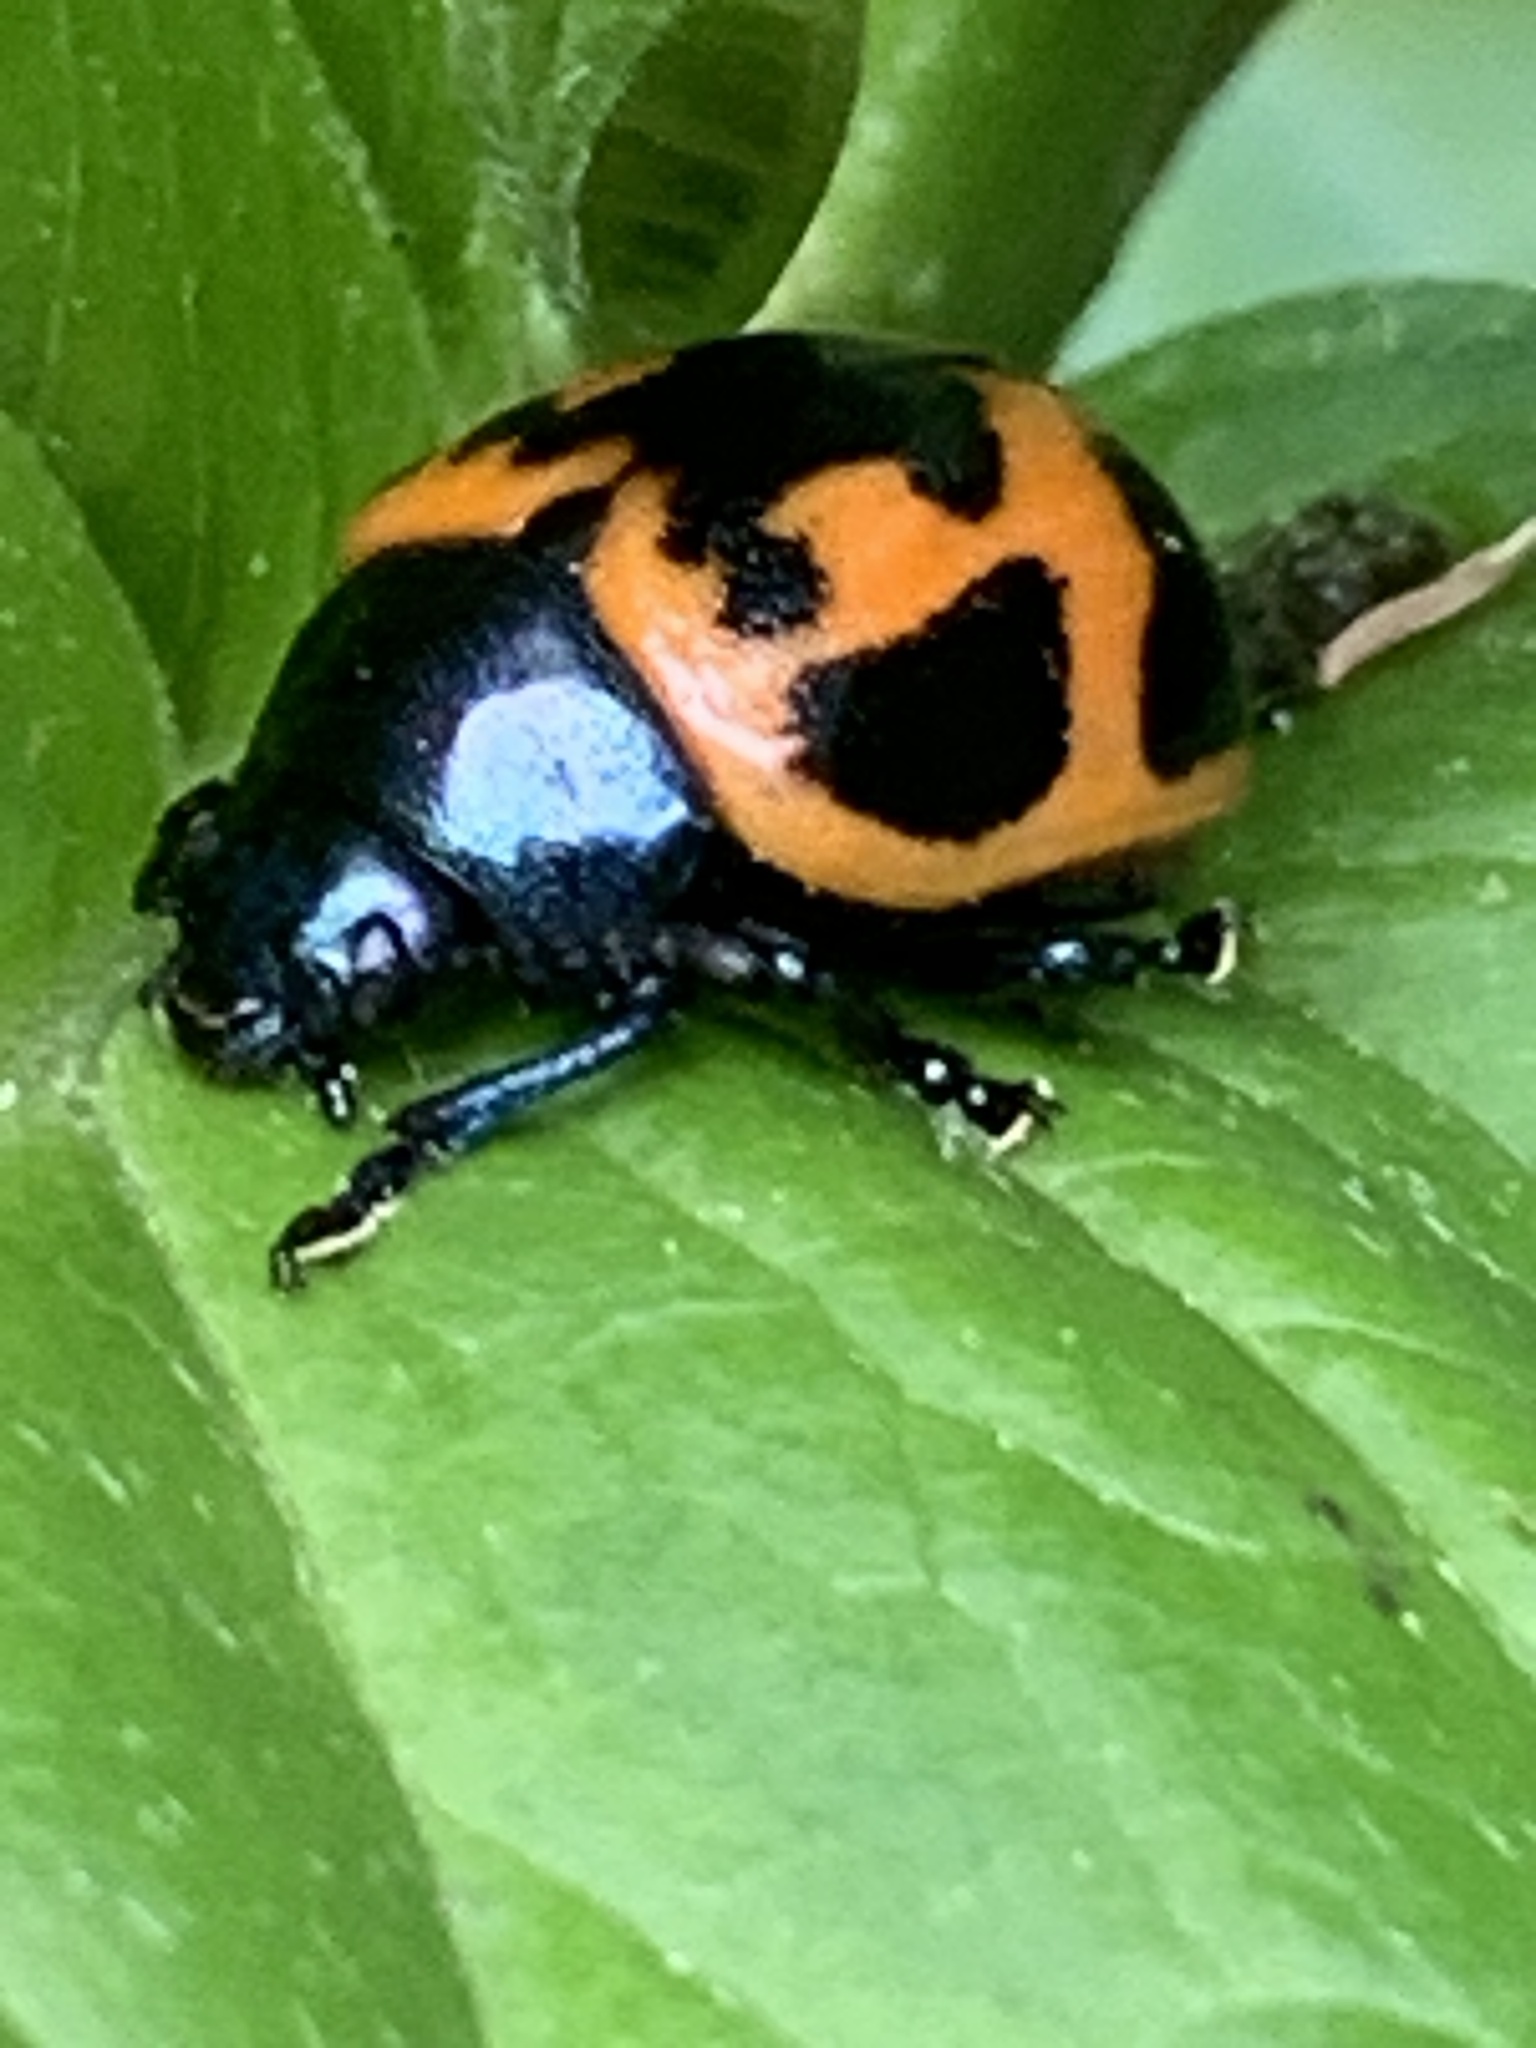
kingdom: Animalia
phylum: Arthropoda
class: Insecta
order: Coleoptera
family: Chrysomelidae
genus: Labidomera
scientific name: Labidomera clivicollis
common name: Swamp milkweed leaf beetle
